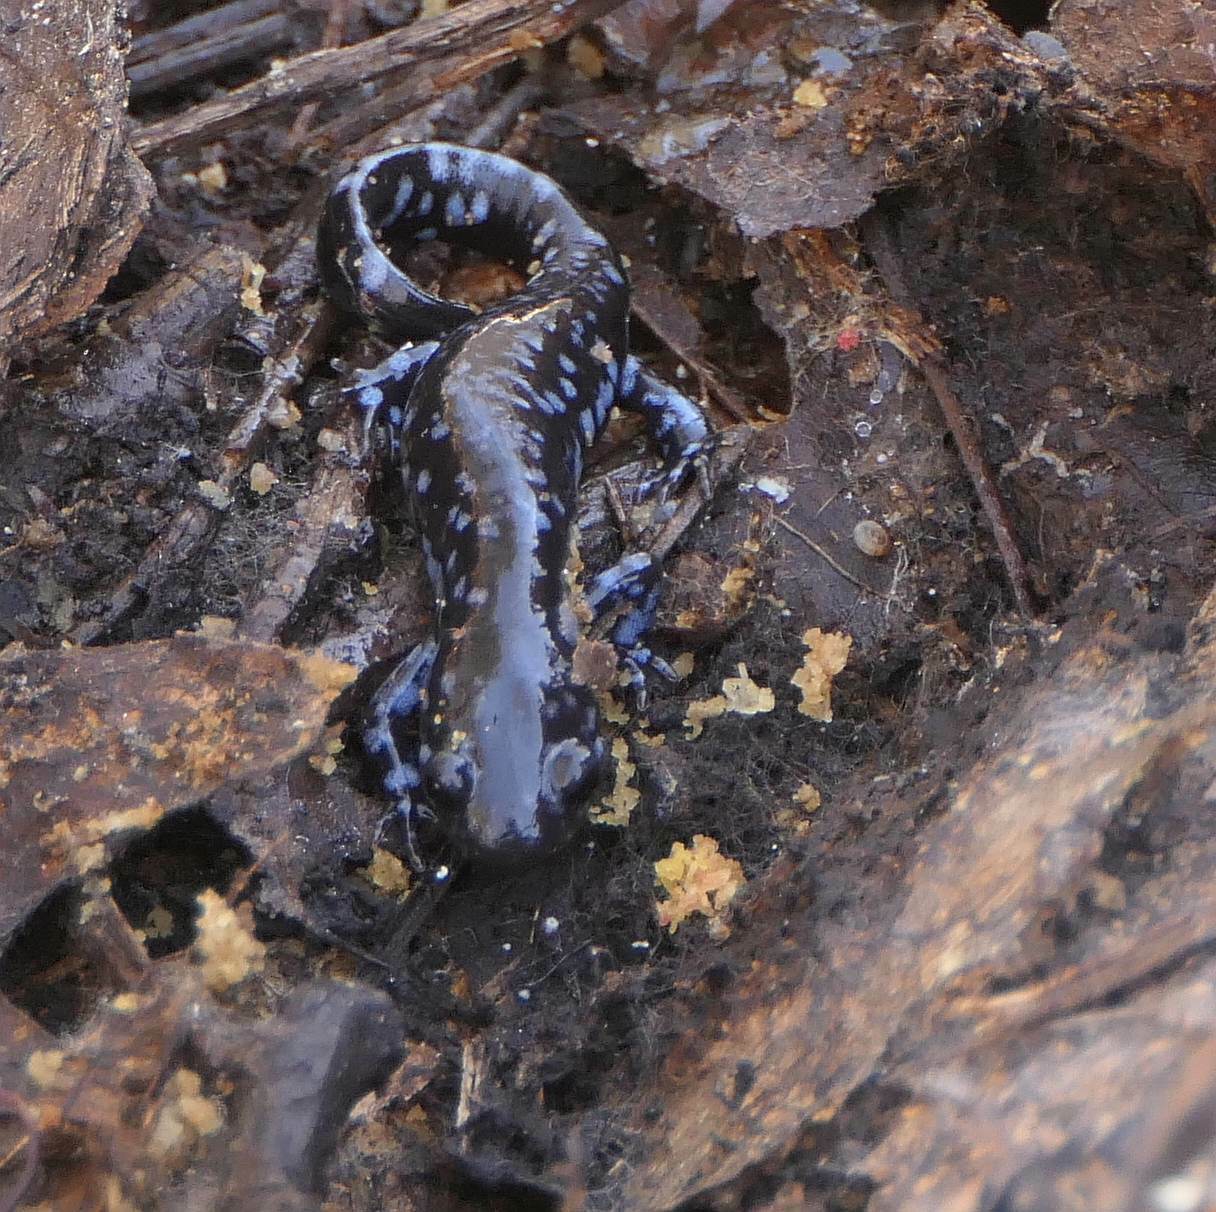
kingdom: Animalia
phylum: Chordata
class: Amphibia
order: Caudata
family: Ambystomatidae
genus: Ambystoma
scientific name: Ambystoma laterale
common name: Blue-spotted salamander
